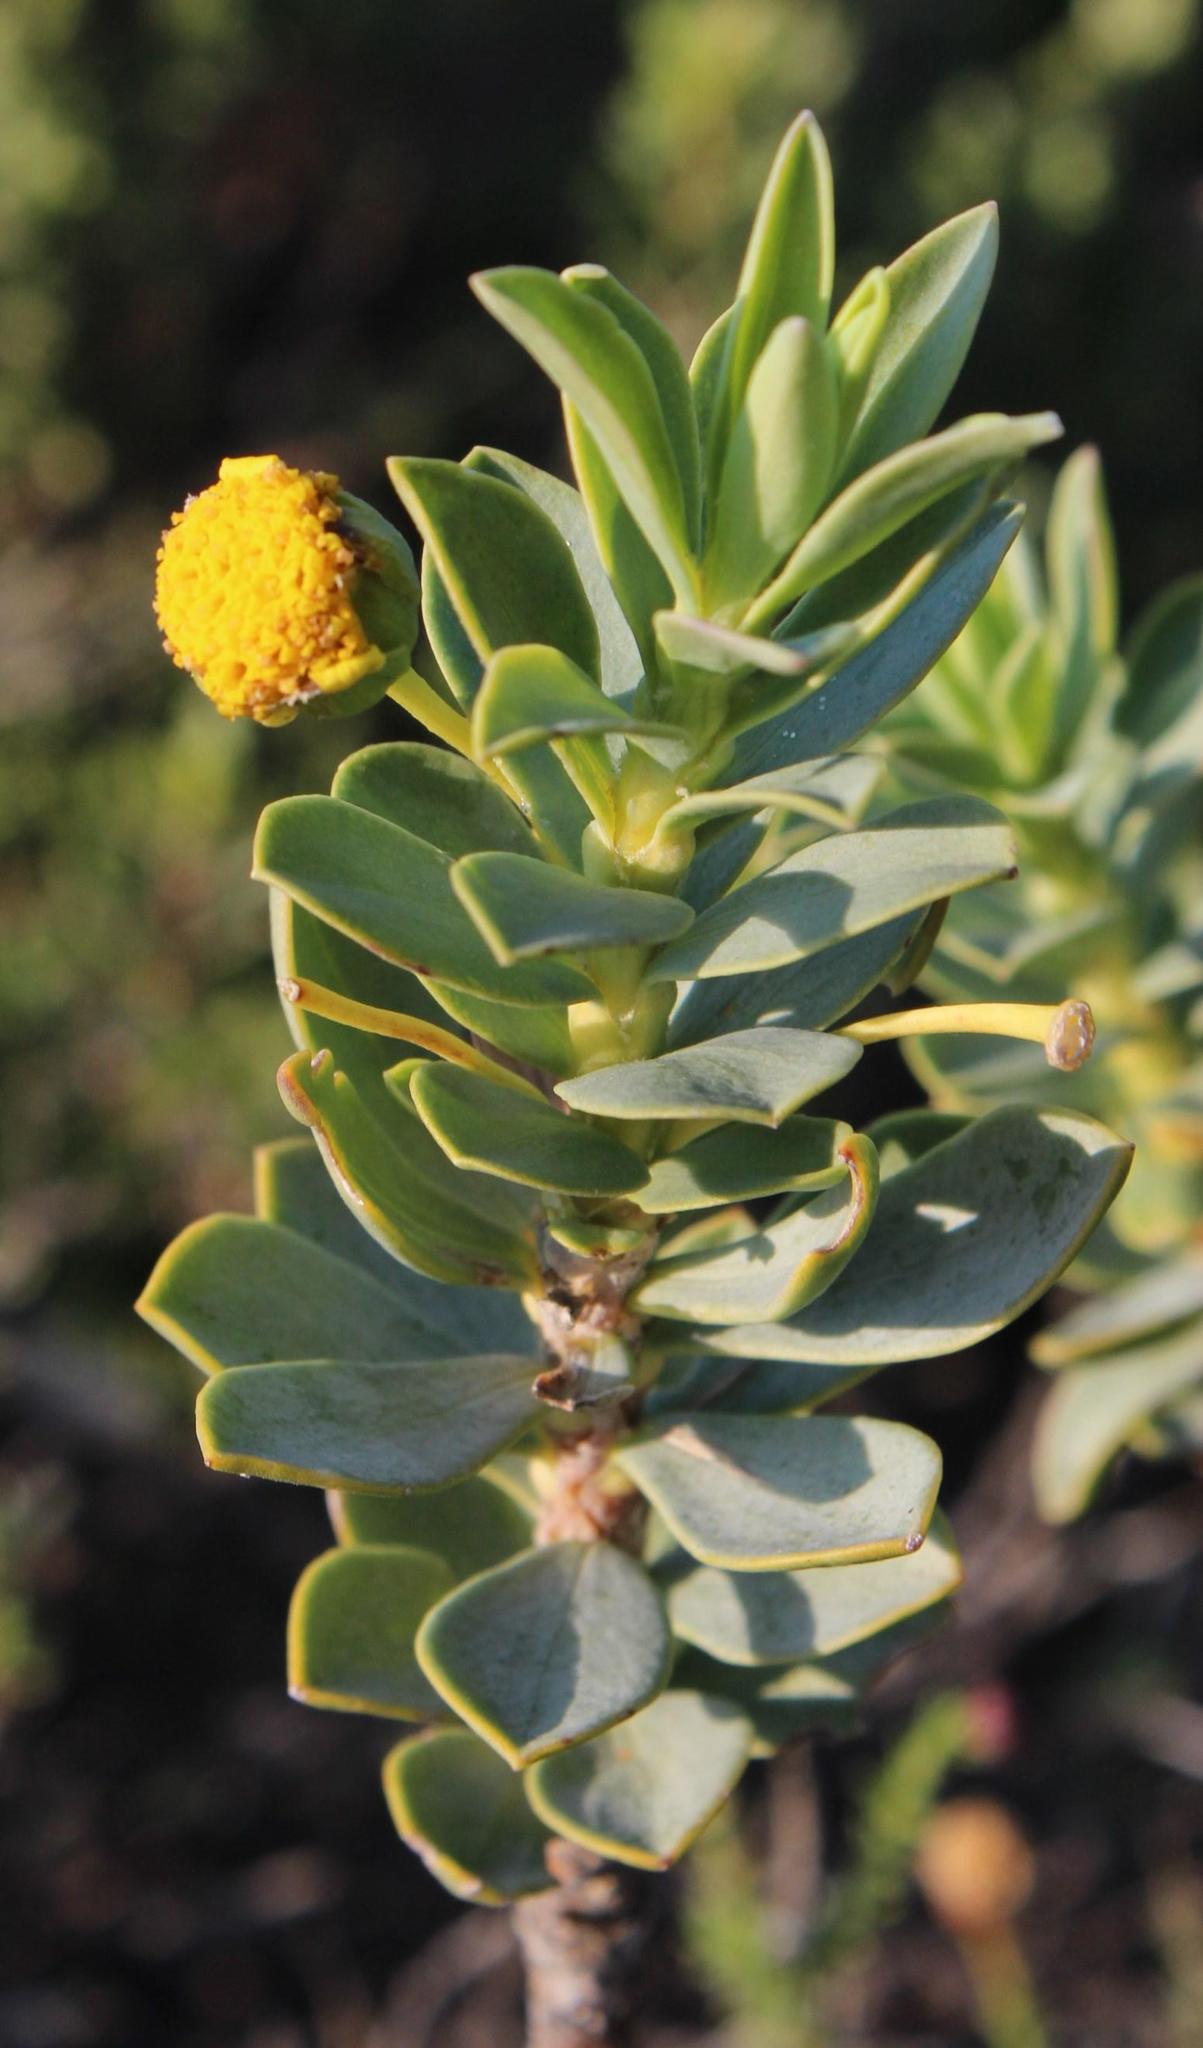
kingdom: Plantae
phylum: Tracheophyta
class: Magnoliopsida
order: Asterales
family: Asteraceae
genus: Euryops
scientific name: Euryops lateriflorus
